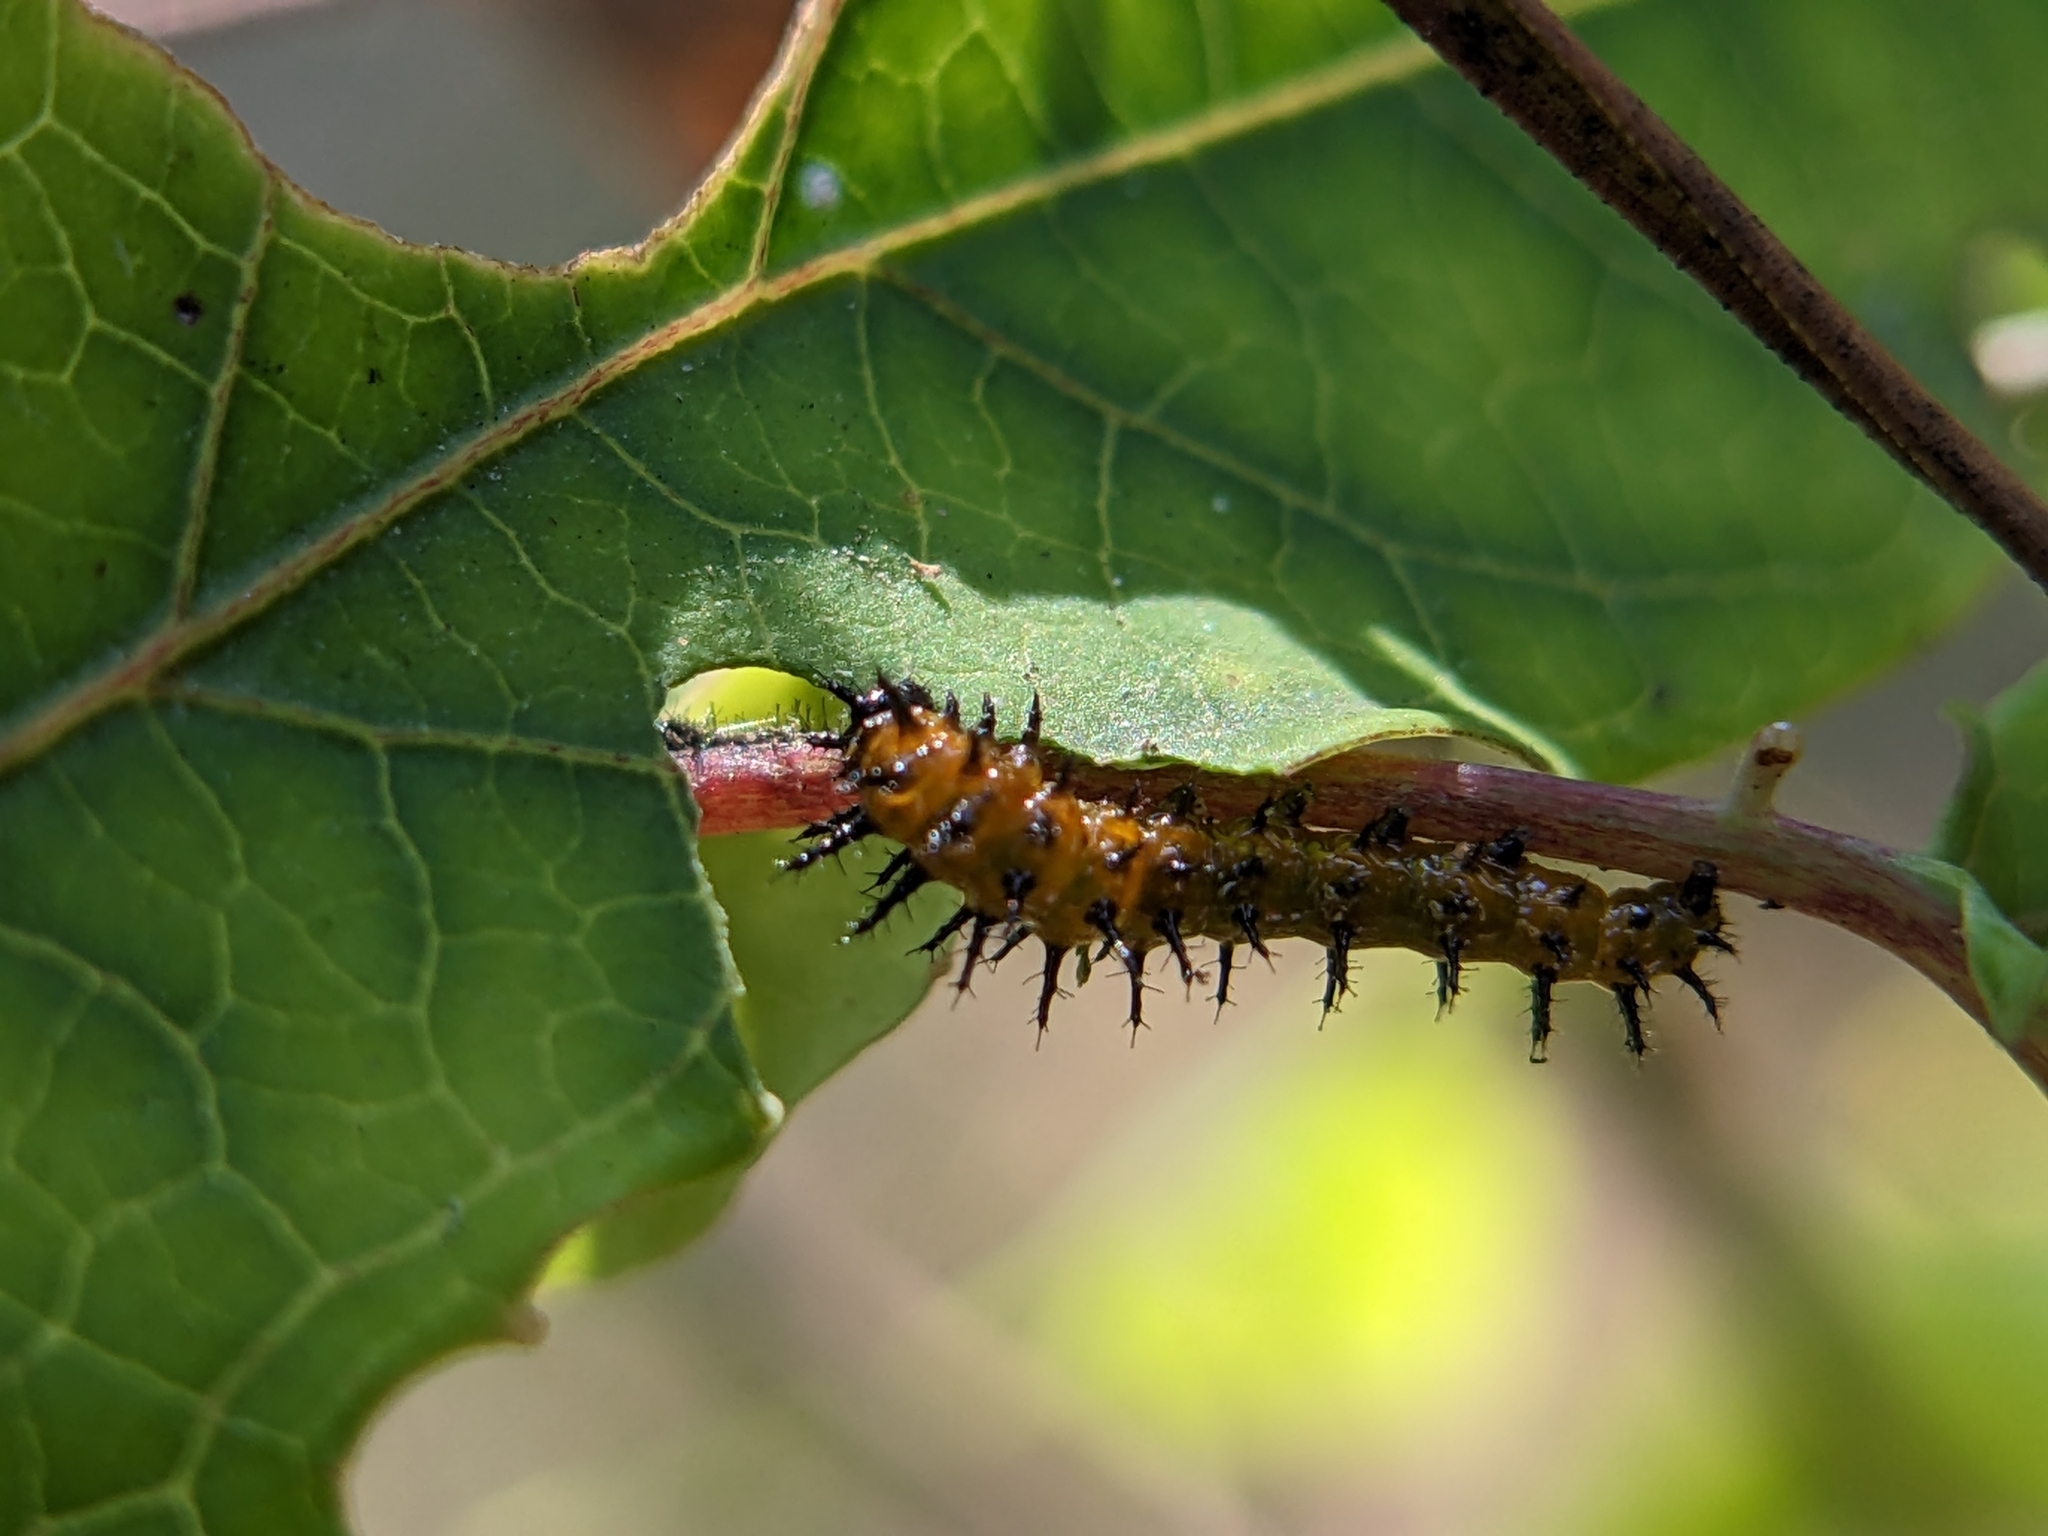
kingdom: Animalia
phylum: Arthropoda
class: Insecta
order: Lepidoptera
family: Nymphalidae
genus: Dione
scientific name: Dione vanillae
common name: Gulf fritillary
